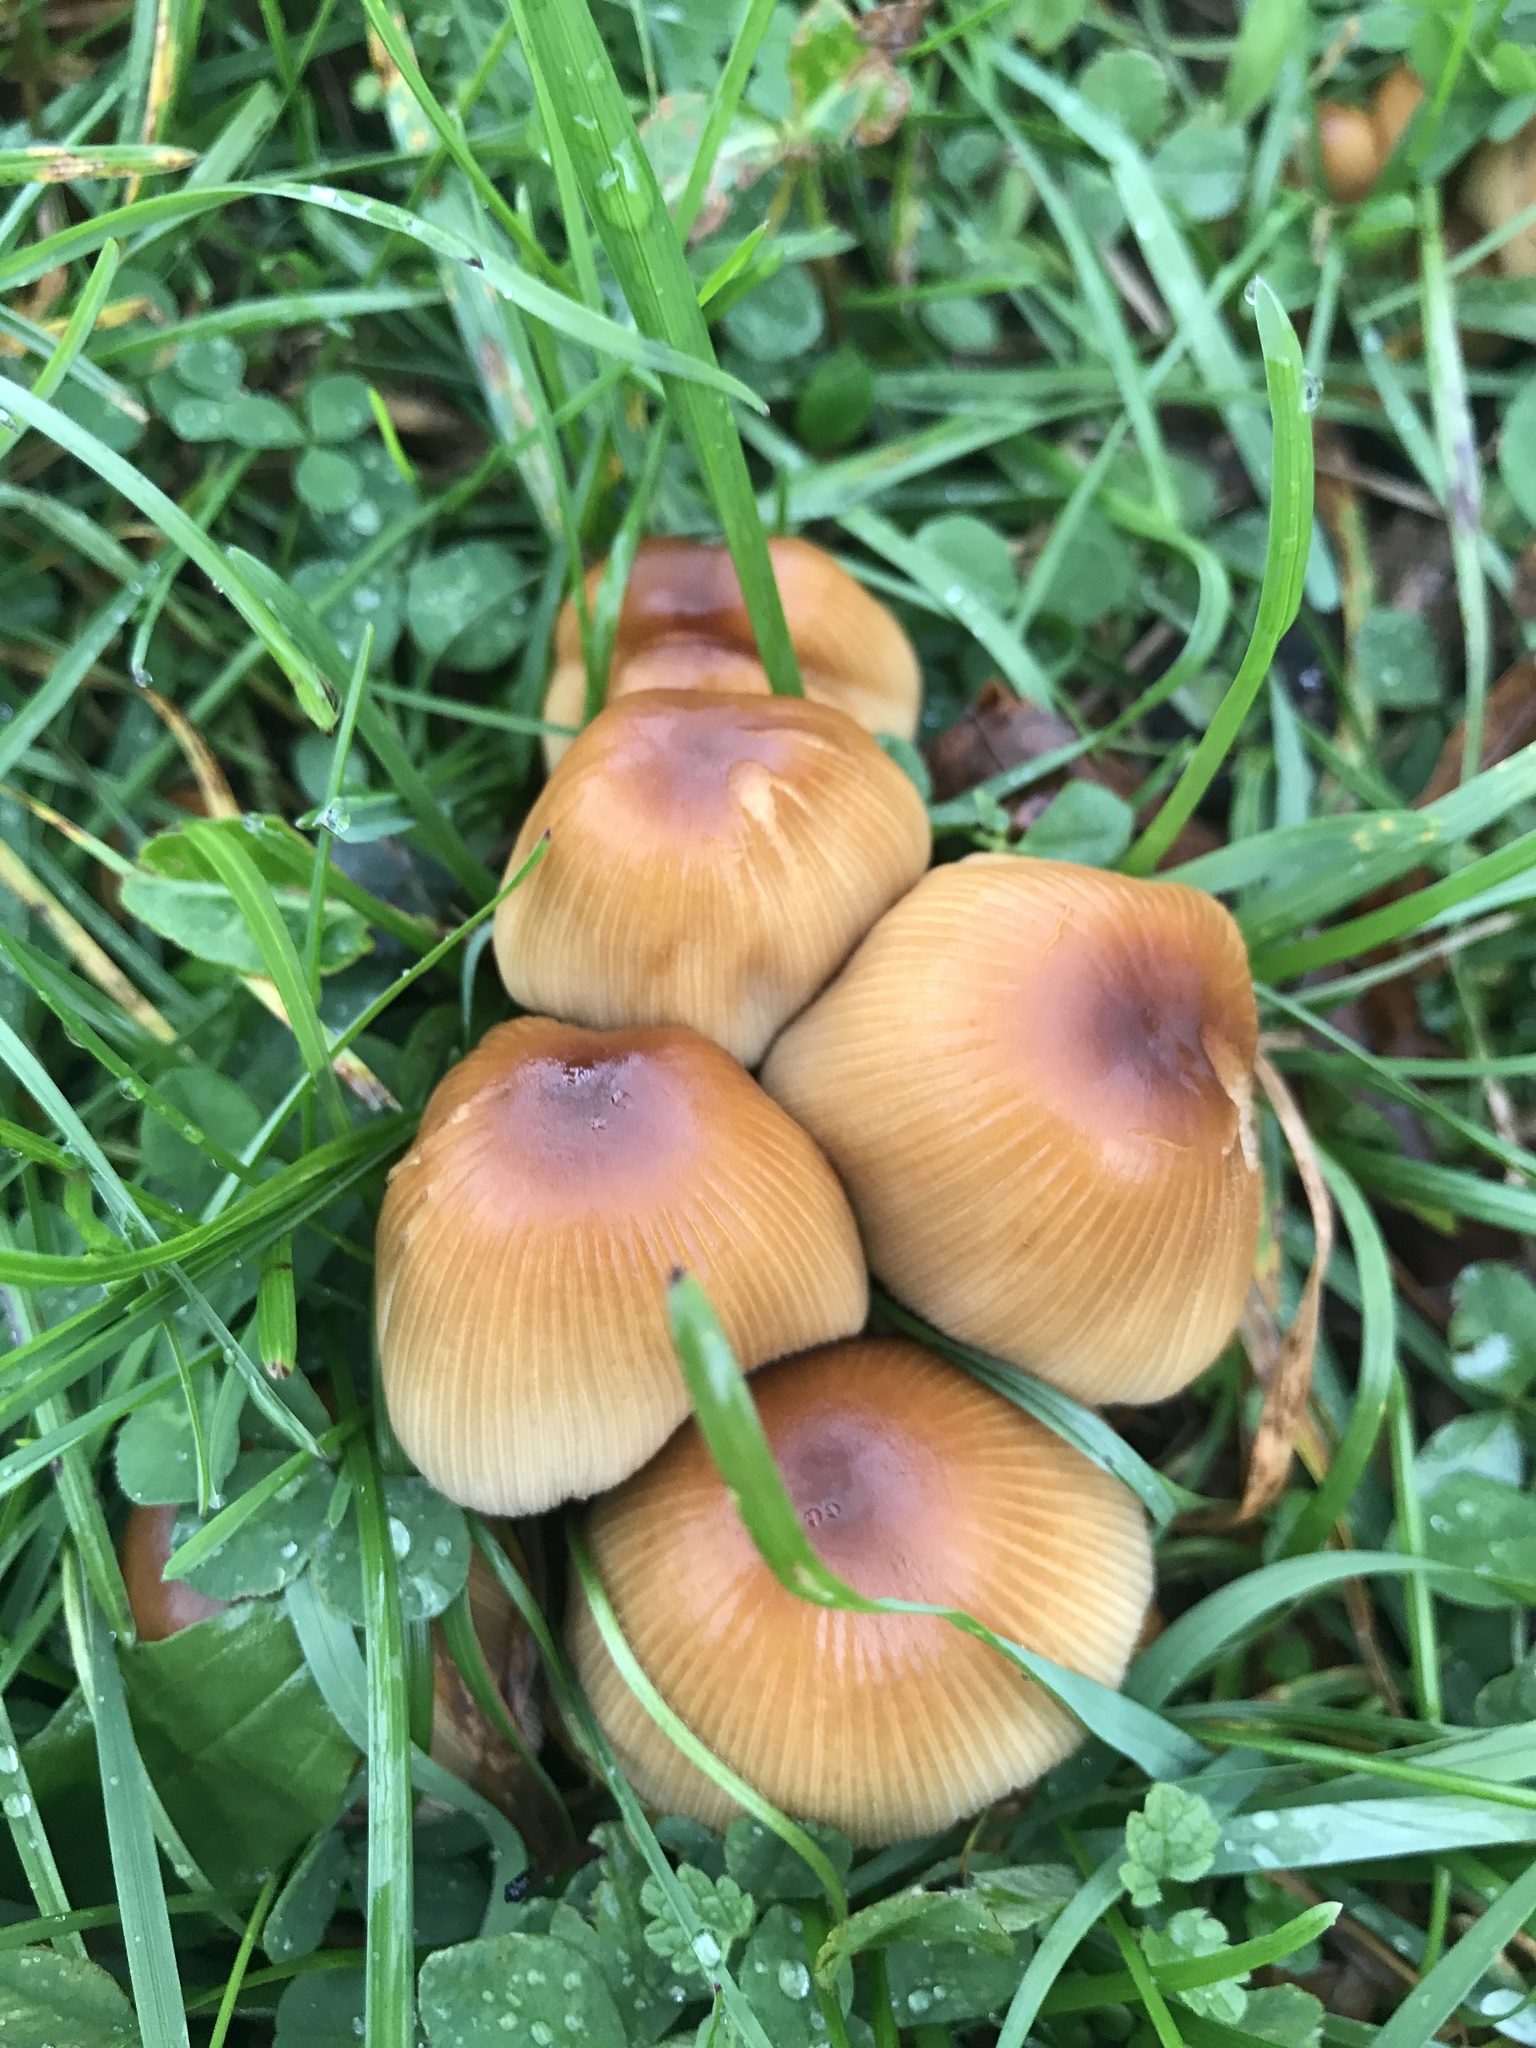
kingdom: Fungi
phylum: Basidiomycota
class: Agaricomycetes
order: Agaricales
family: Psathyrellaceae
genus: Coprinellus
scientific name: Coprinellus micaceus
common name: Glistening ink-cap
